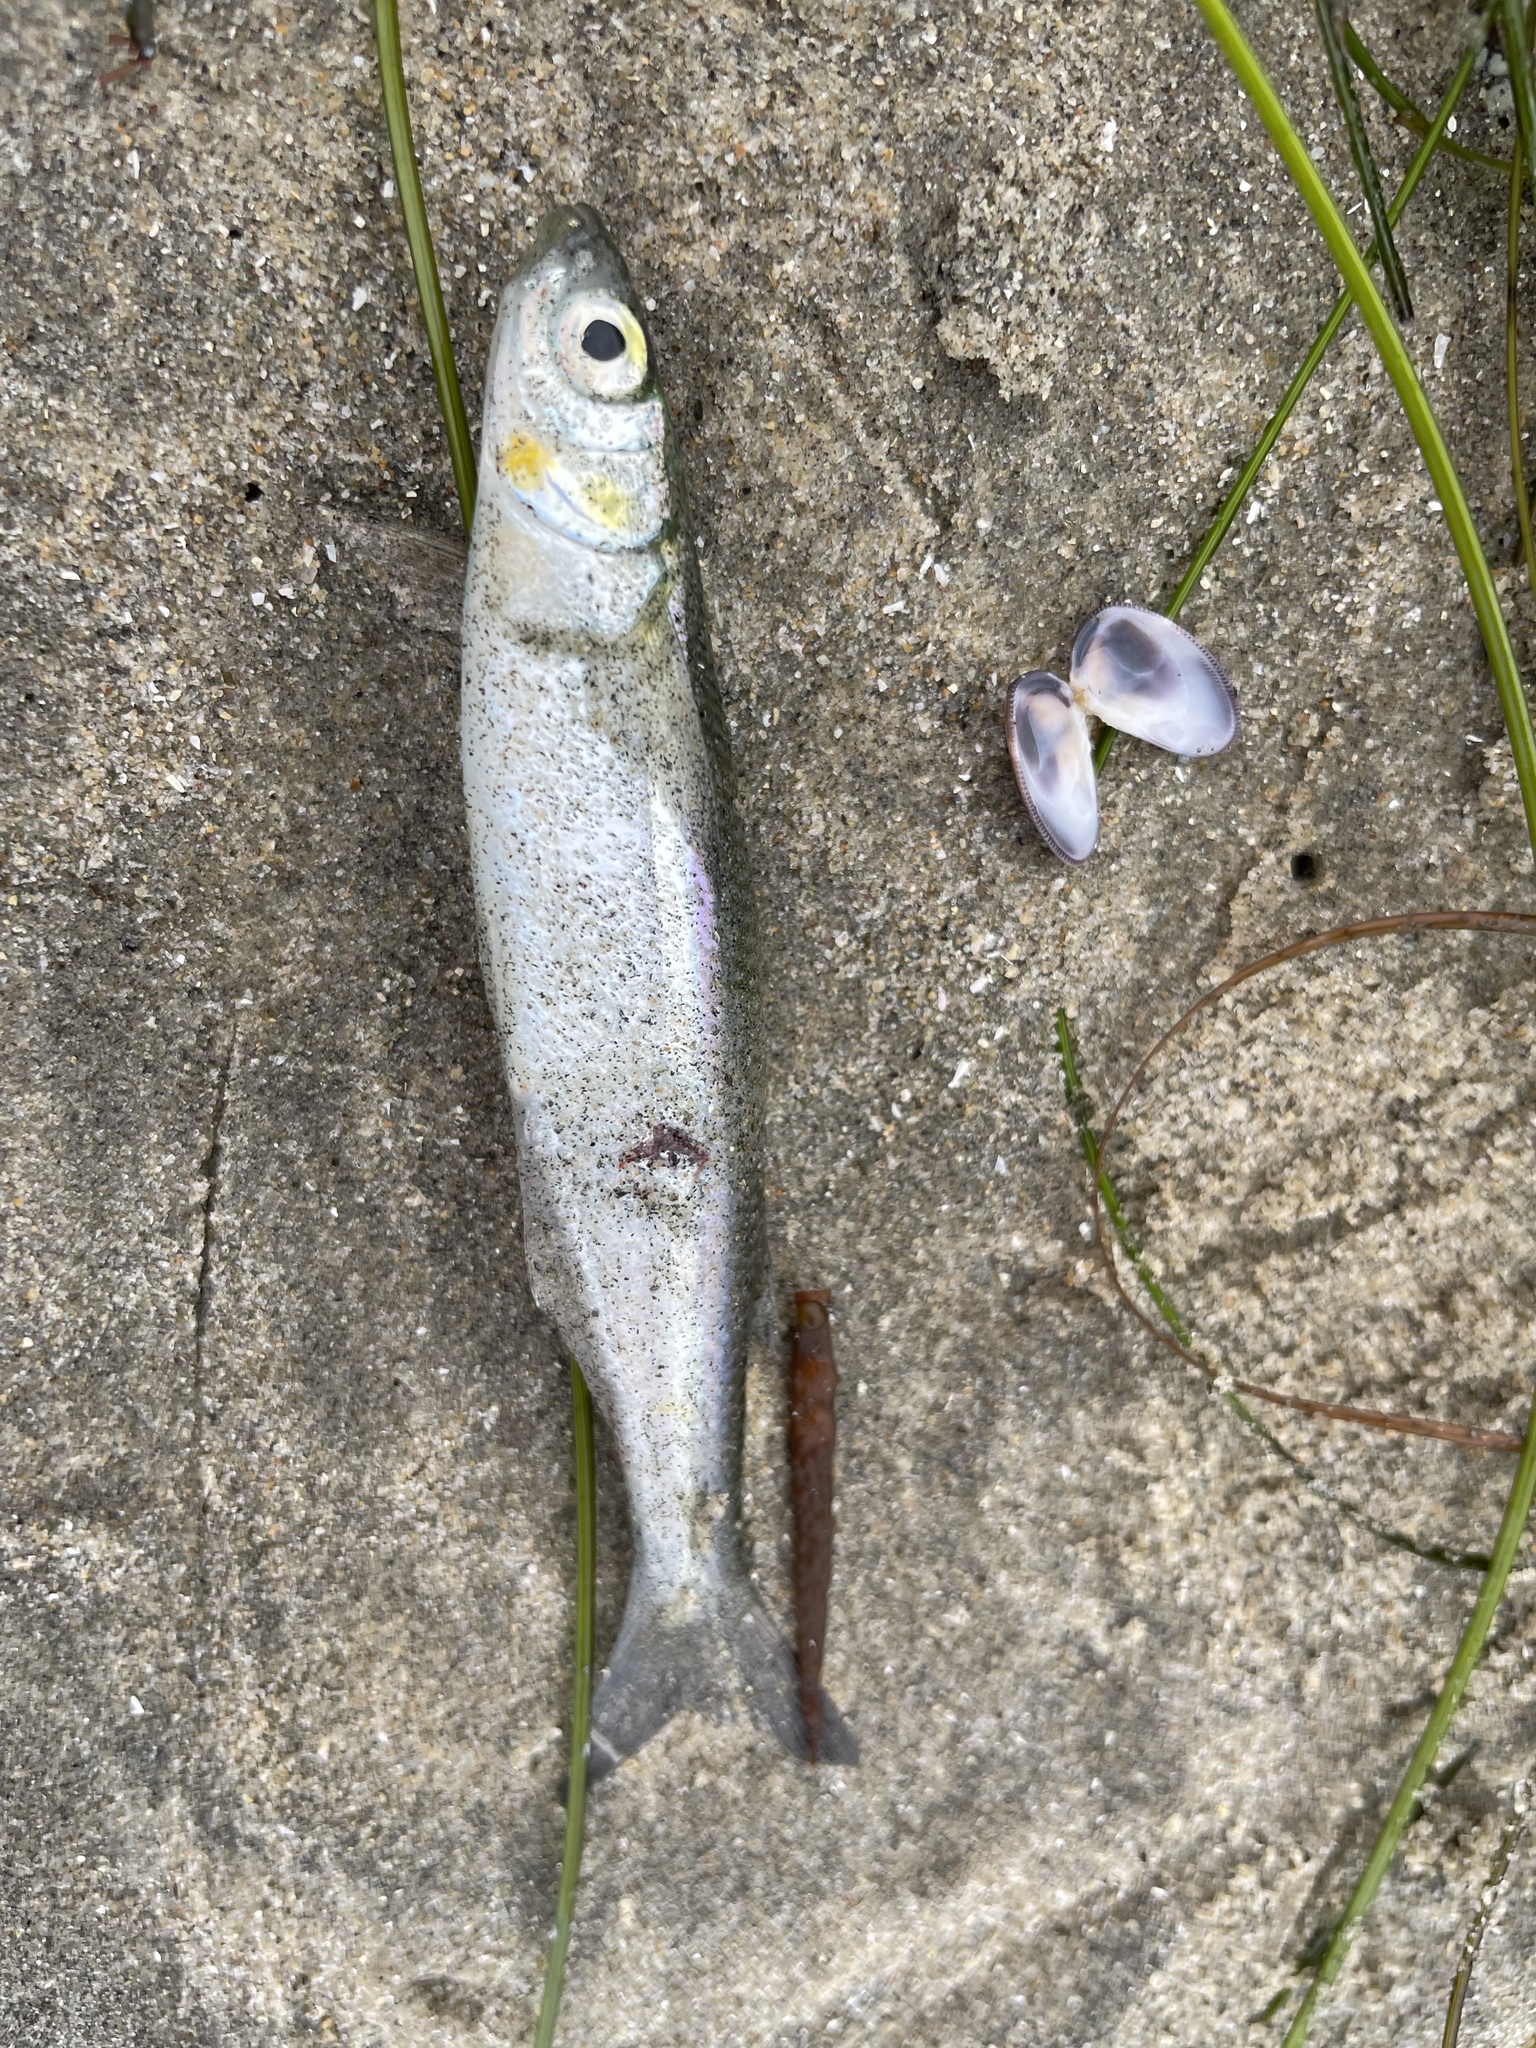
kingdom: Animalia
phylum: Chordata
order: Atheriniformes
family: Atherinopsidae
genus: Atherinops
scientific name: Atherinops affinis
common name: Topsmelt
